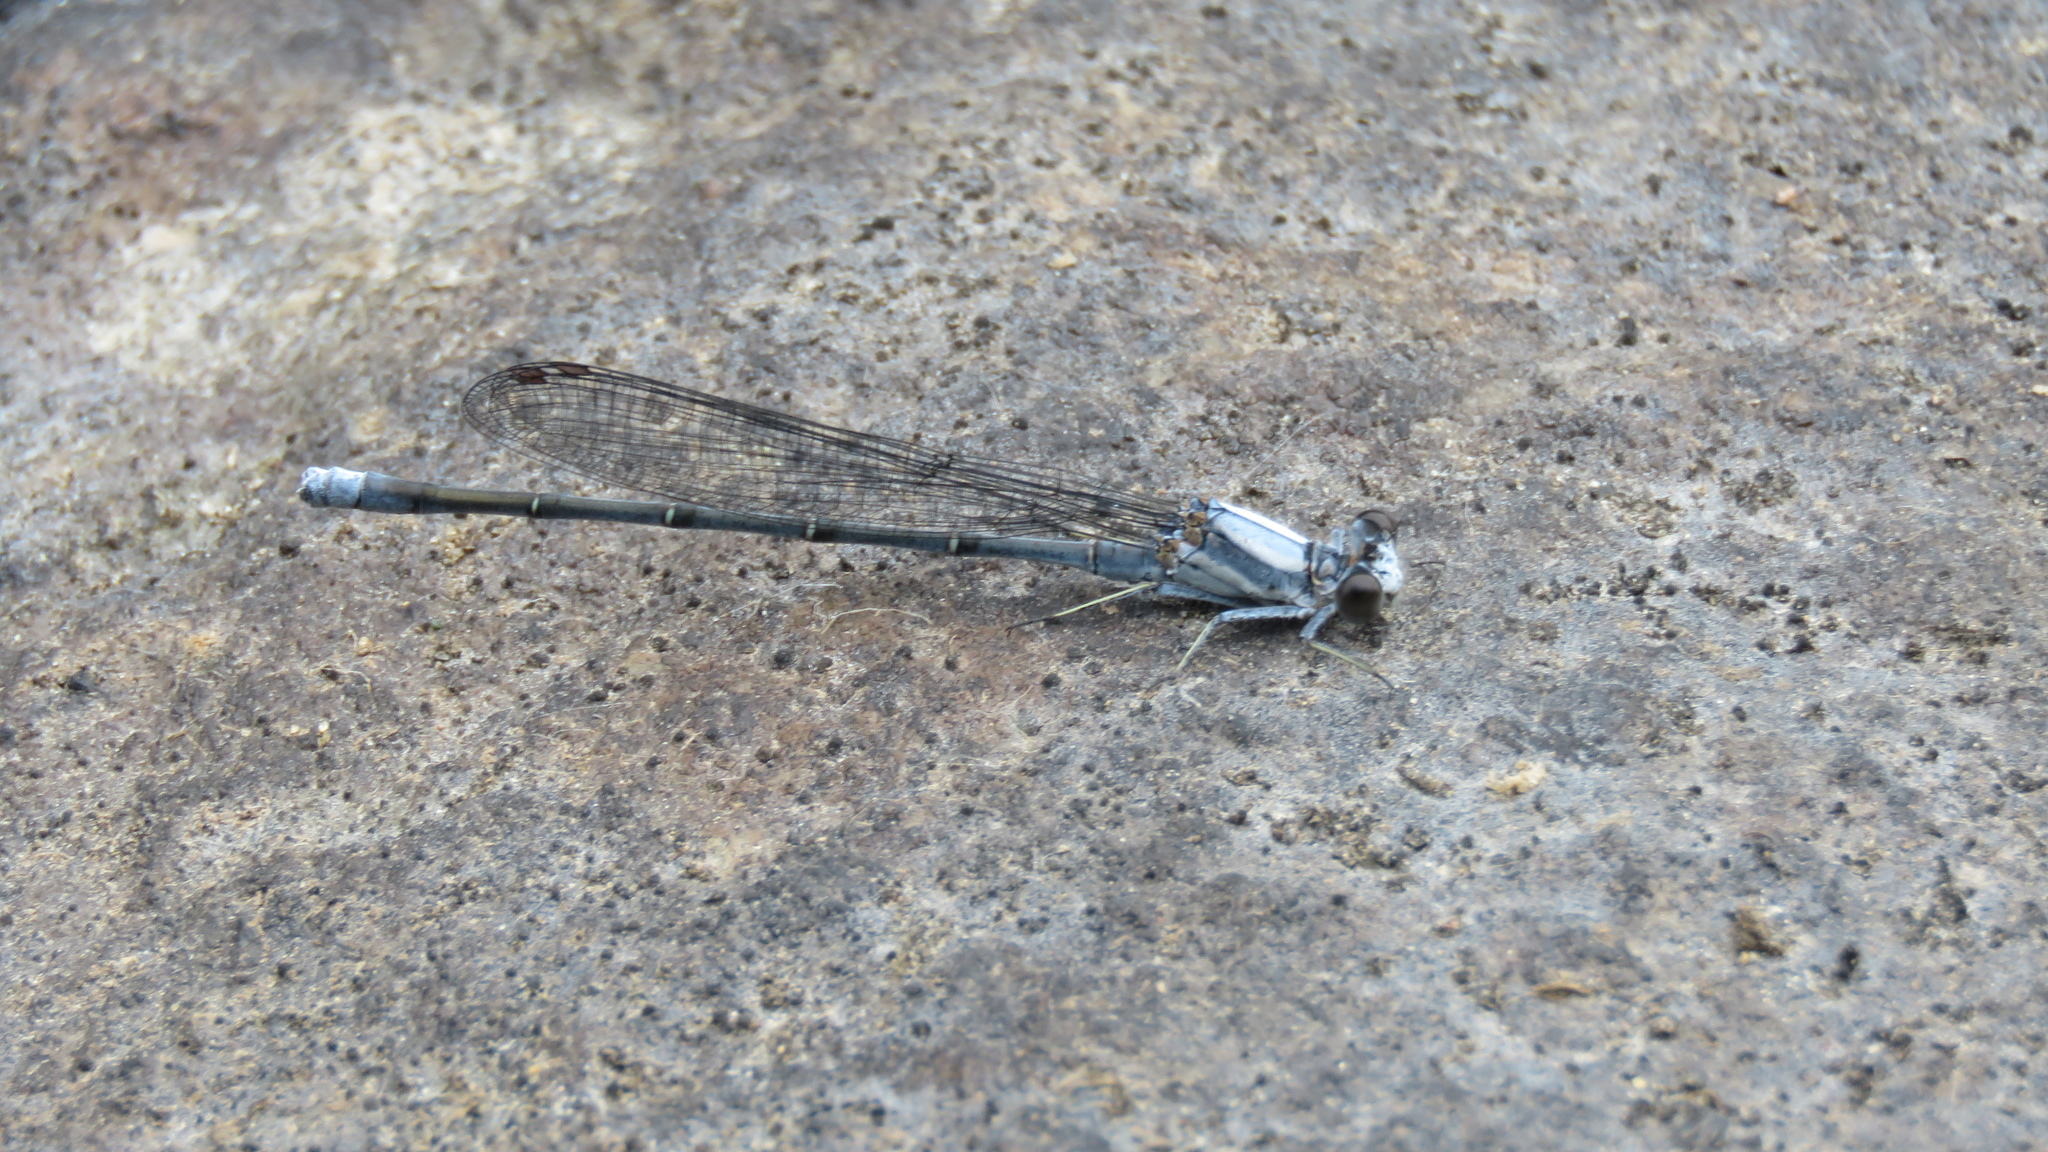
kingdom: Animalia
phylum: Arthropoda
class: Insecta
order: Odonata
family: Coenagrionidae
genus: Argia
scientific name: Argia moesta
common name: Powdered dancer
